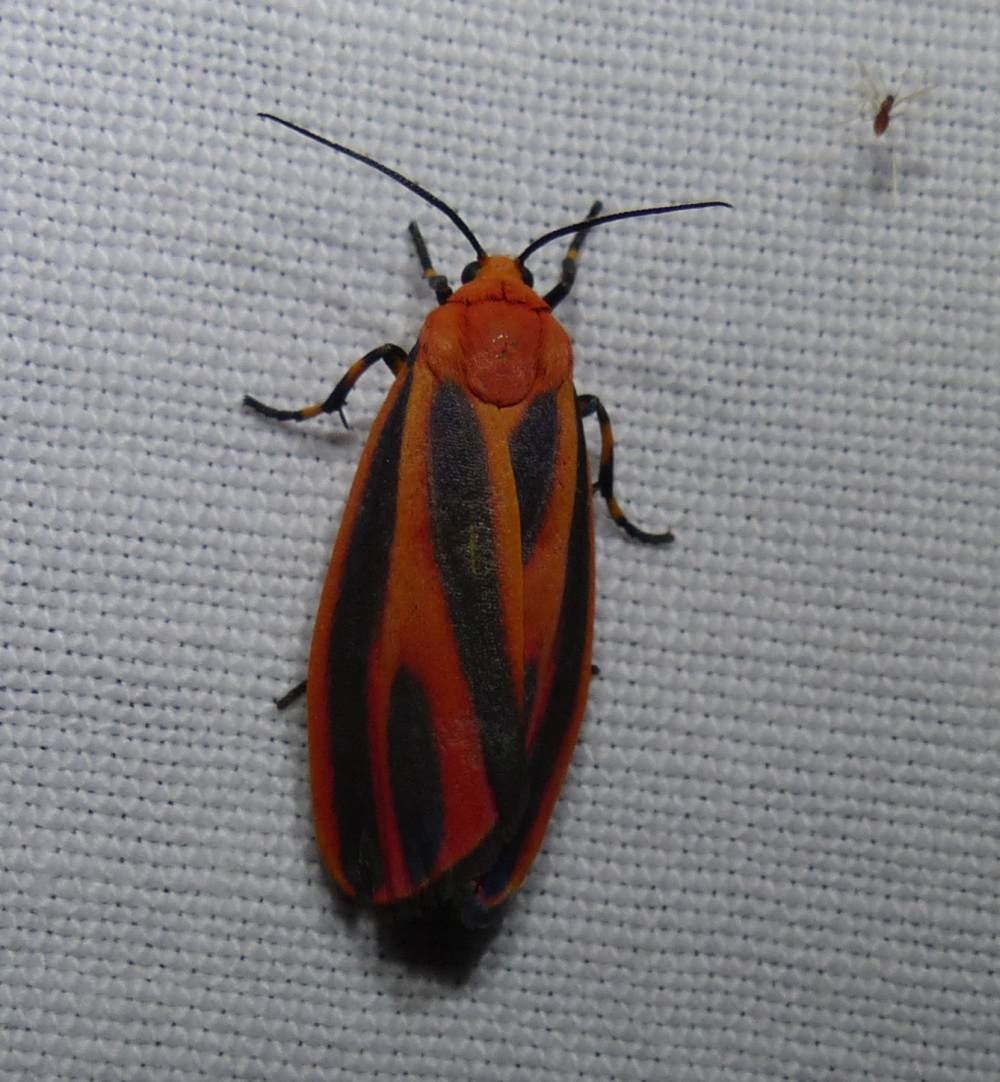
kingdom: Animalia
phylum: Arthropoda
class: Insecta
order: Lepidoptera
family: Erebidae
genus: Hypoprepia
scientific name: Hypoprepia miniata
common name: Scarlet-winged lichen moth
